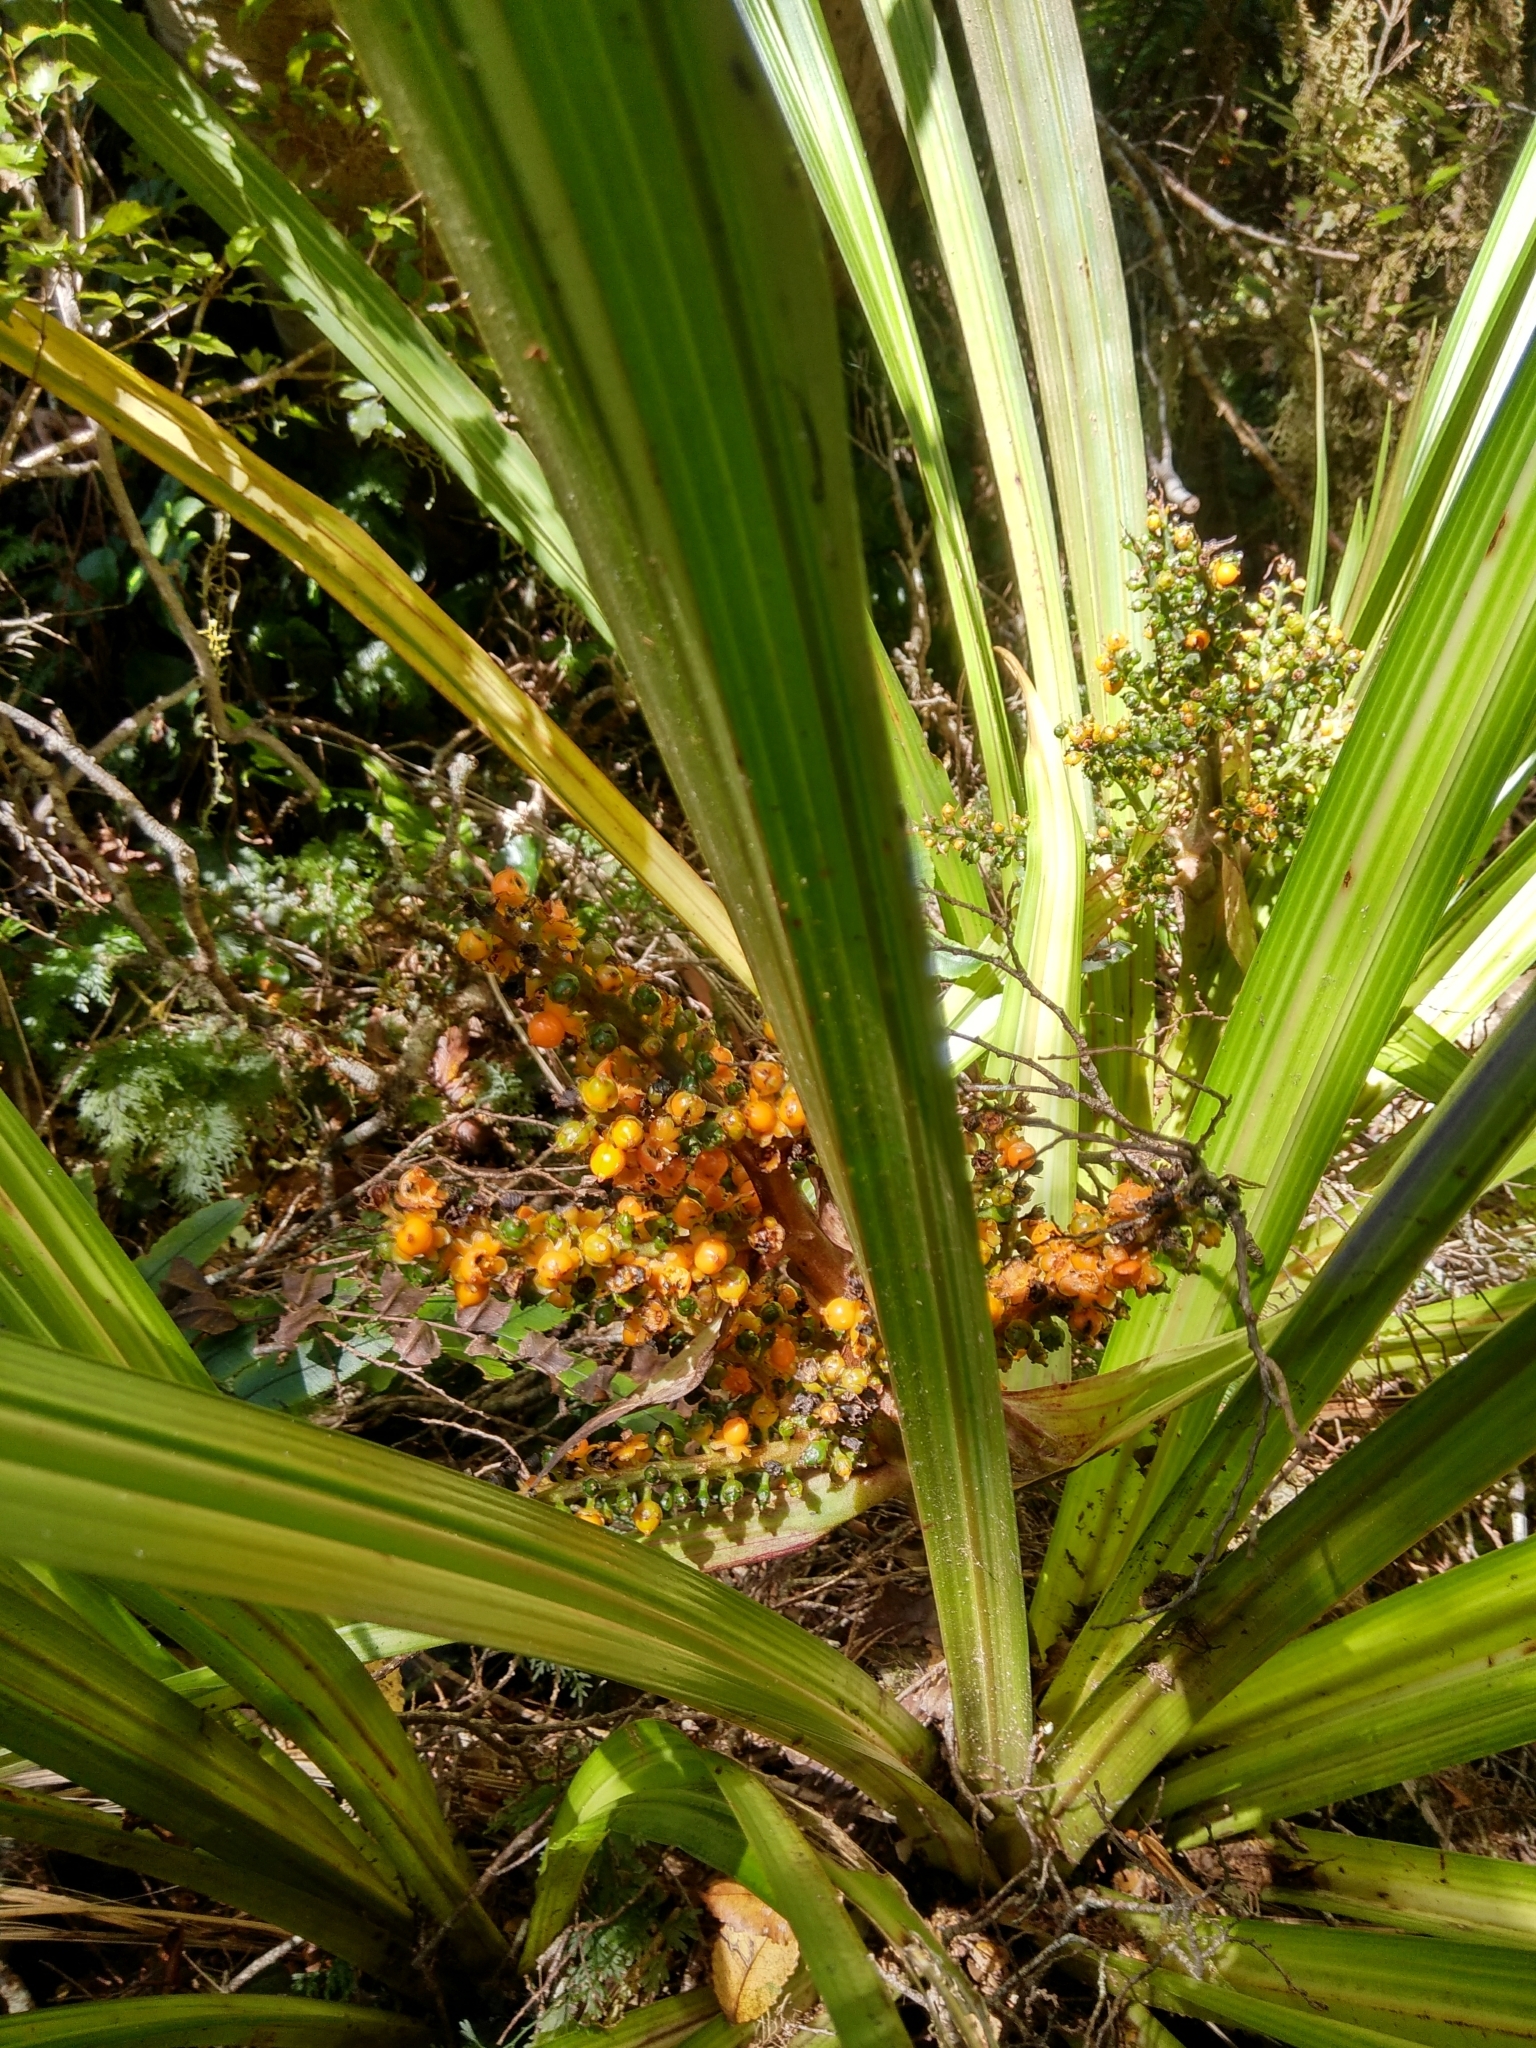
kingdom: Plantae
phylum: Tracheophyta
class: Liliopsida
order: Asparagales
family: Asteliaceae
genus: Astelia
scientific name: Astelia fragrans
